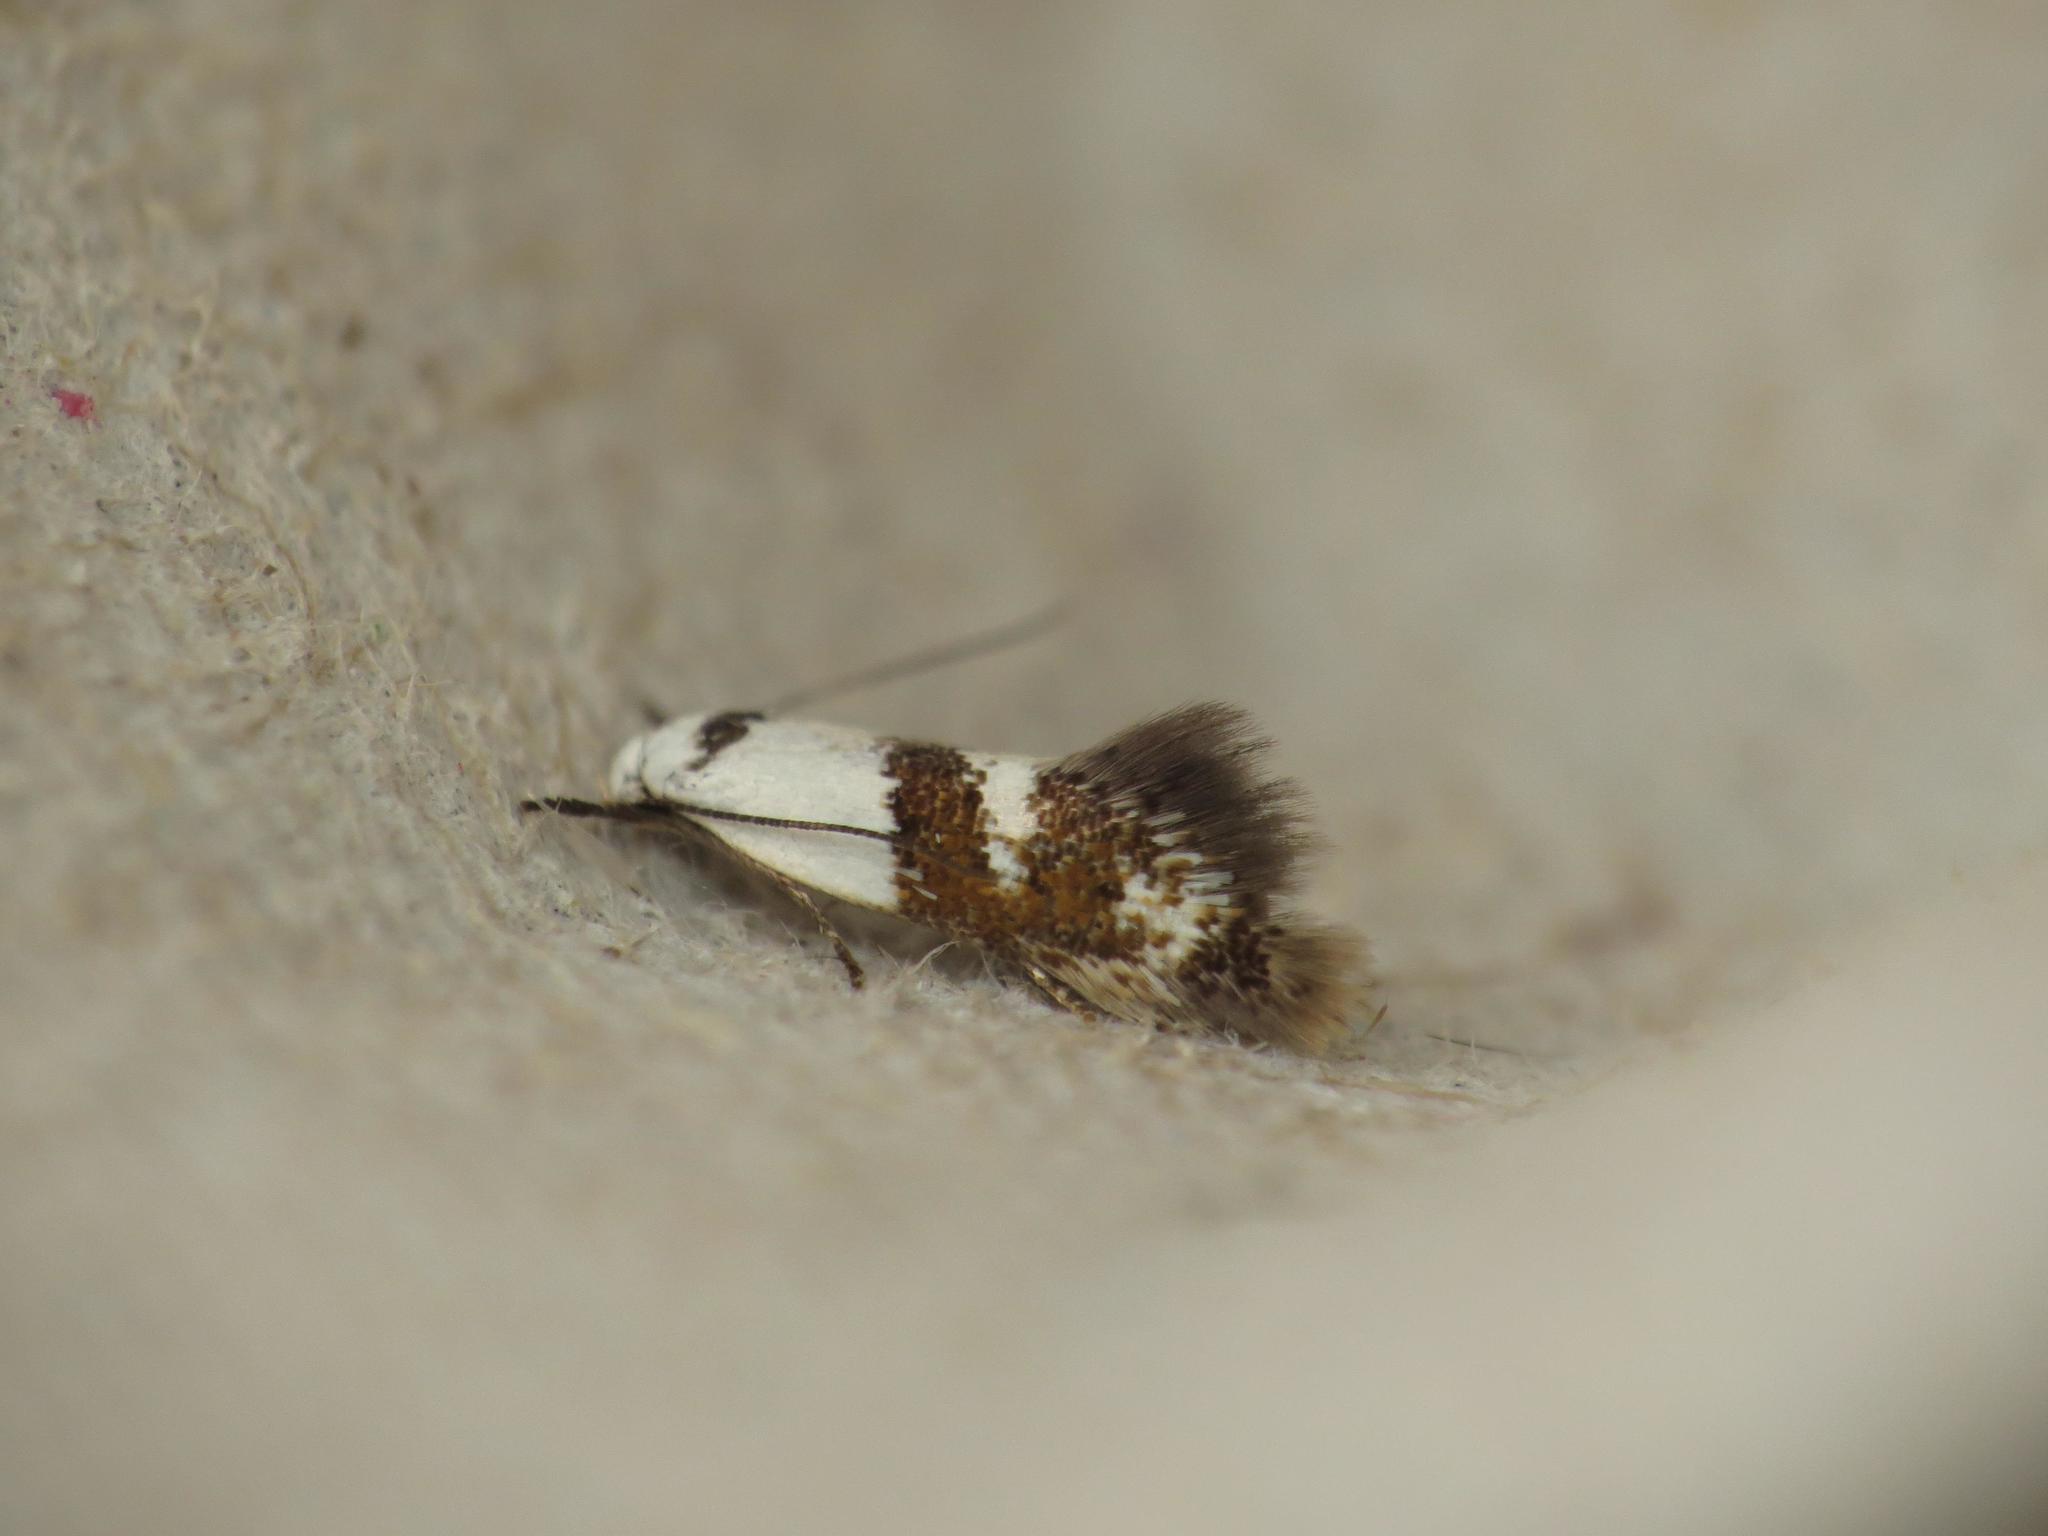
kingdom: Animalia
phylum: Arthropoda
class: Insecta
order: Lepidoptera
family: Oecophoridae
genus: Notodryas
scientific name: Notodryas vallata
